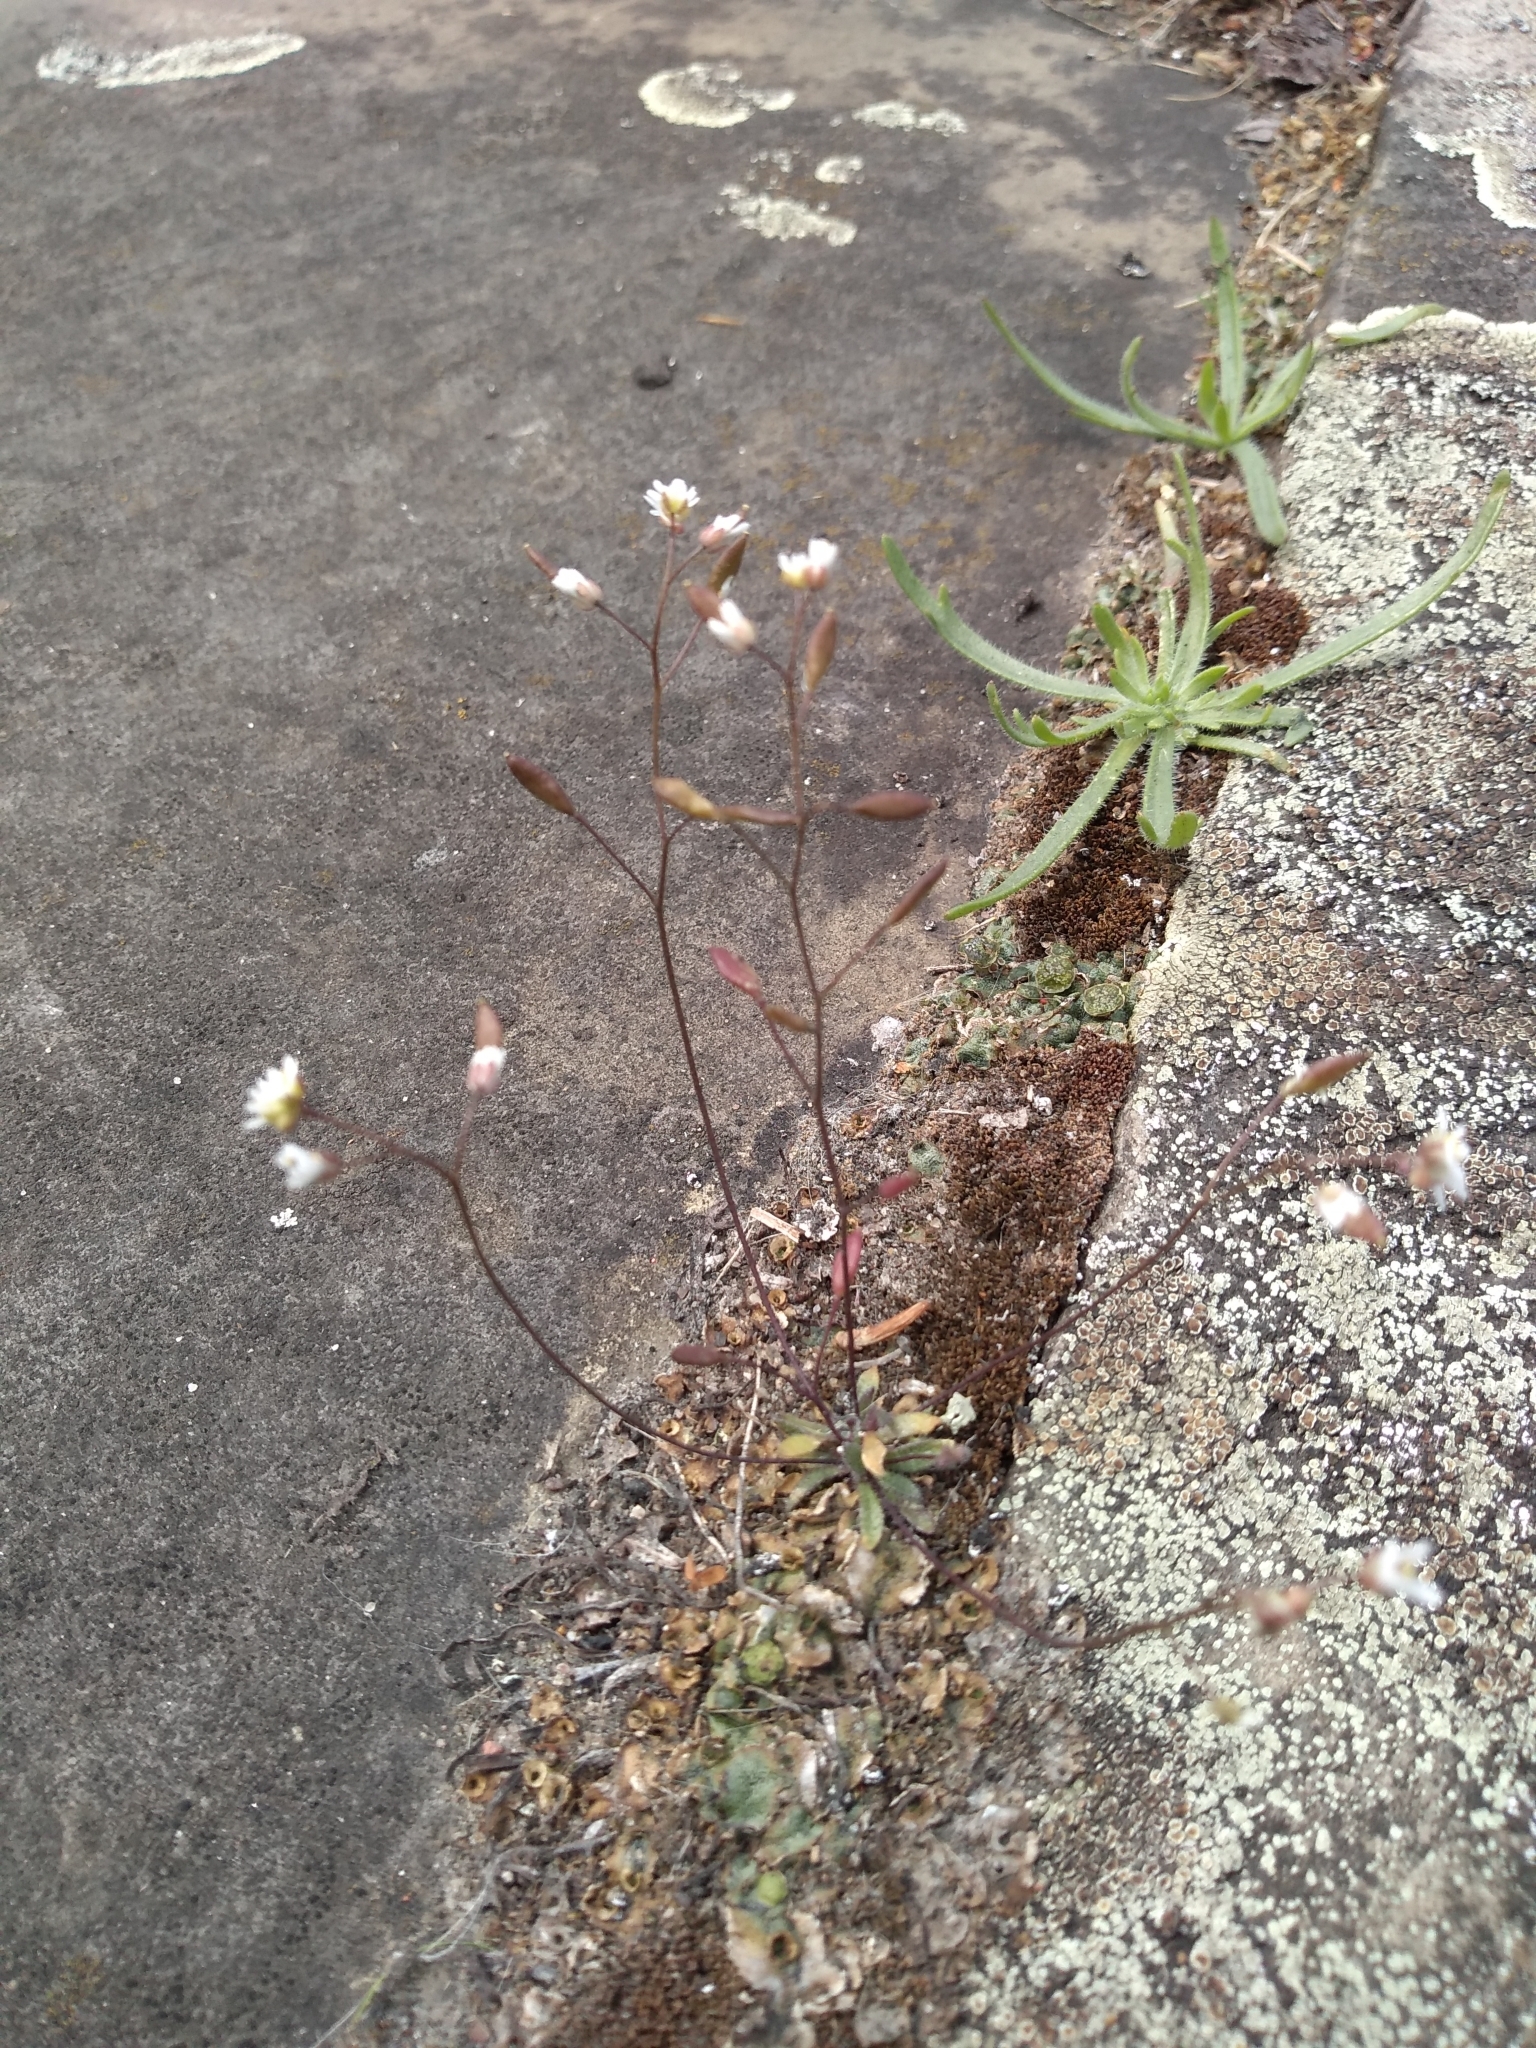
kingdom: Plantae
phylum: Tracheophyta
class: Magnoliopsida
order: Brassicales
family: Brassicaceae
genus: Draba
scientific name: Draba verna
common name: Spring draba
